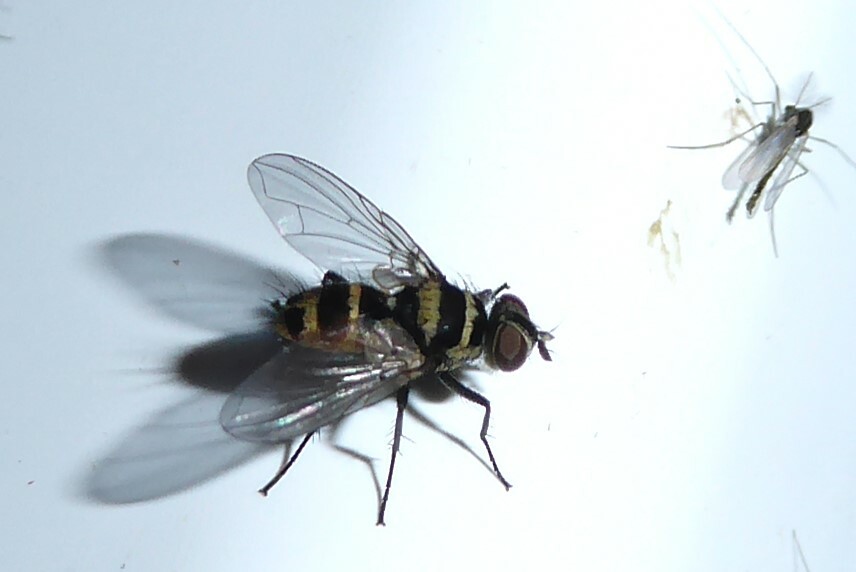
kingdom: Animalia
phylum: Arthropoda
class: Insecta
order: Diptera
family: Tachinidae
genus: Trigonospila
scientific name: Trigonospila brevifacies
